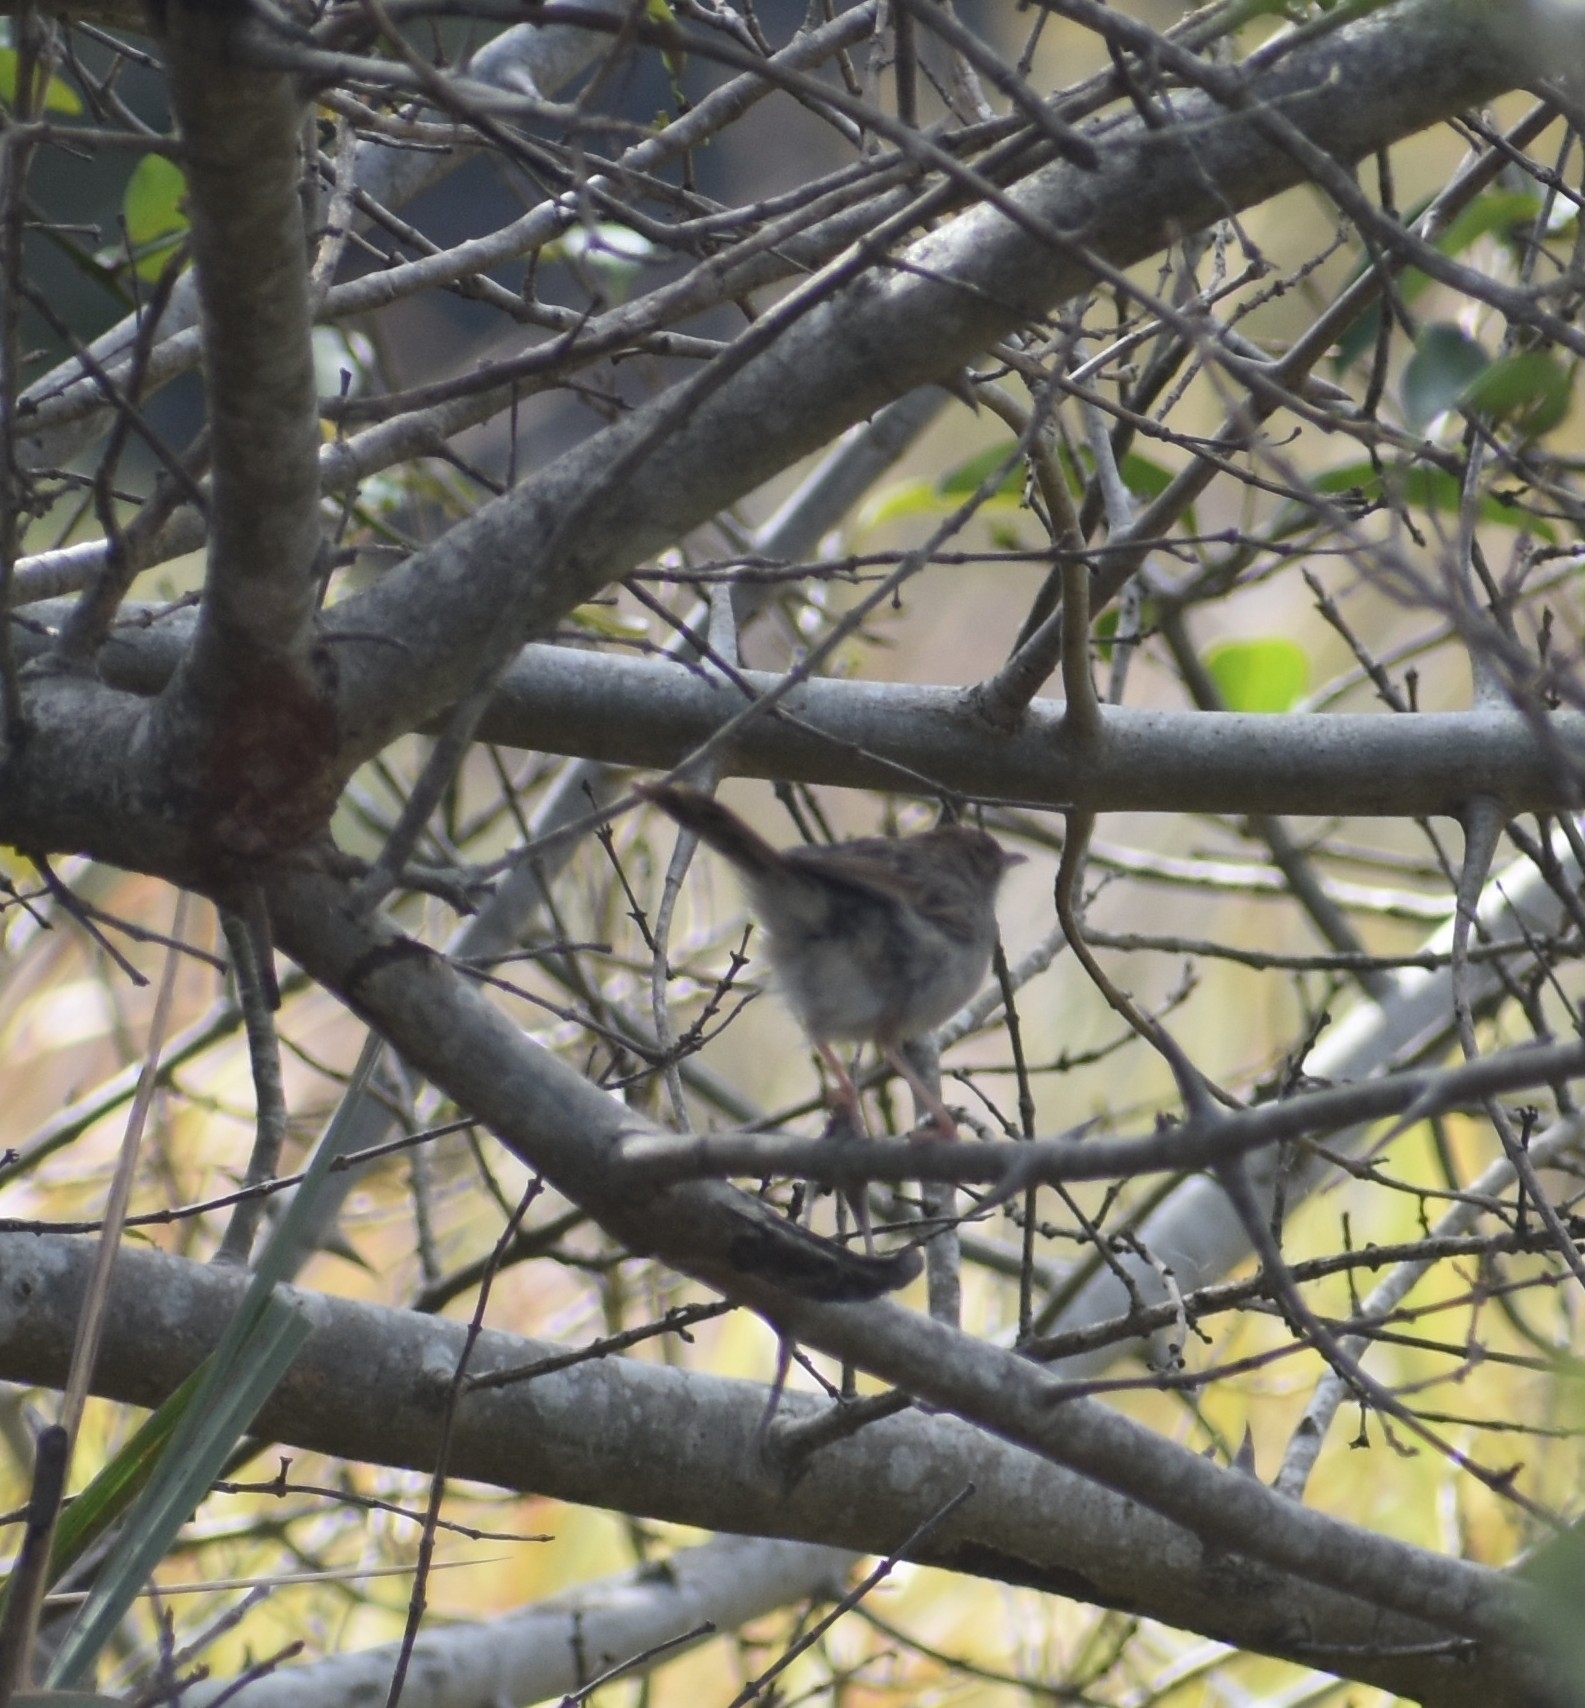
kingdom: Animalia
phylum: Chordata
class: Aves
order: Passeriformes
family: Cisticolidae
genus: Cisticola
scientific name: Cisticola chiniana
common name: Rattling cisticola
